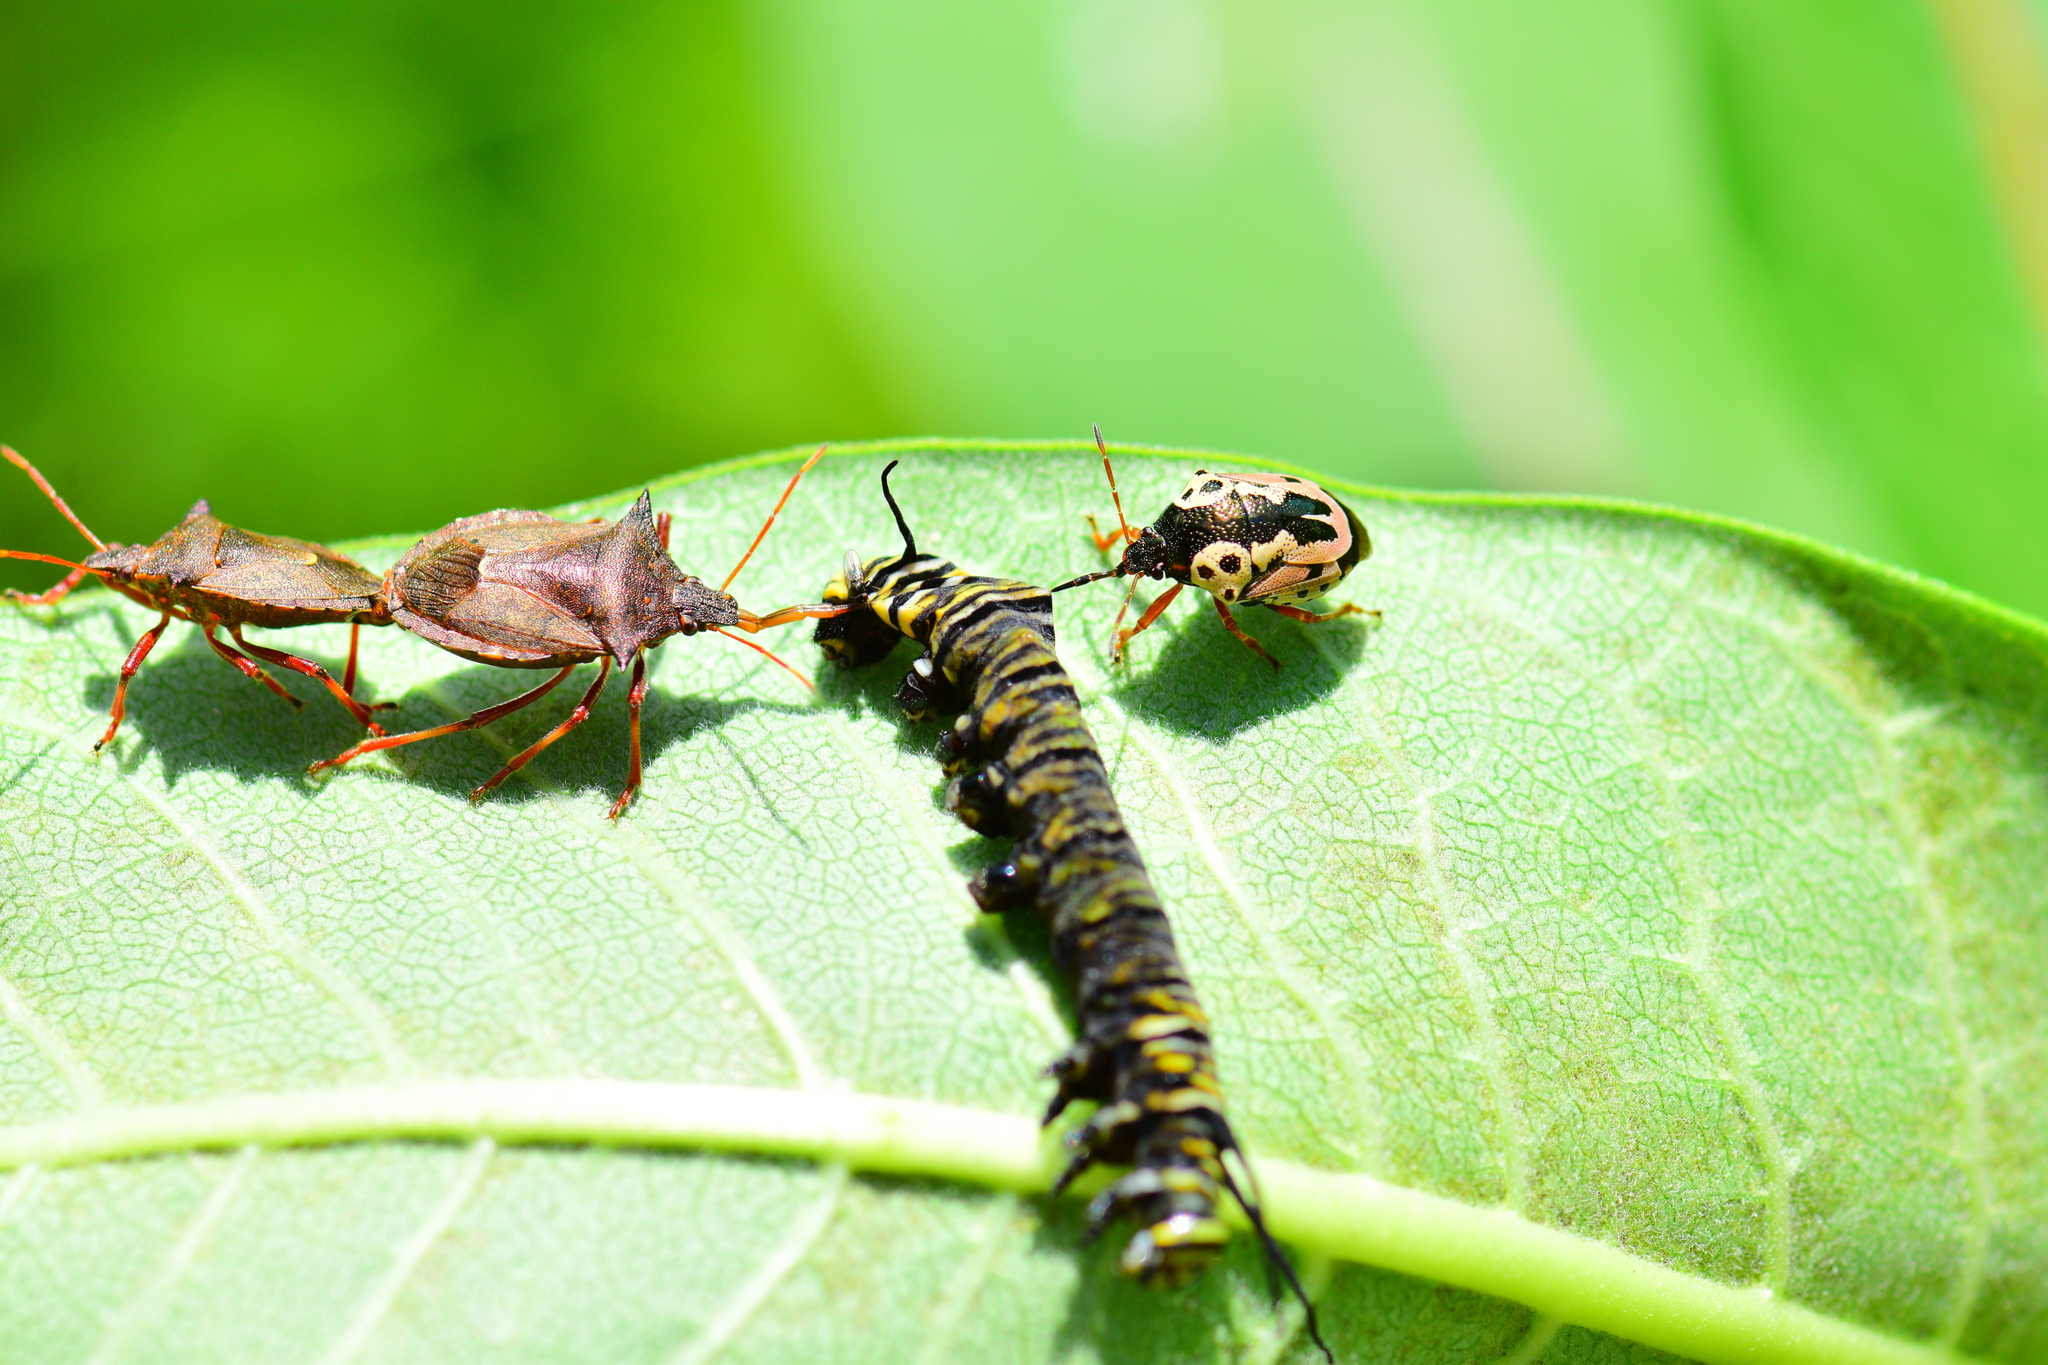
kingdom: Animalia
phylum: Arthropoda
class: Insecta
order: Lepidoptera
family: Nymphalidae
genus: Danaus
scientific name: Danaus plexippus
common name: Monarch
